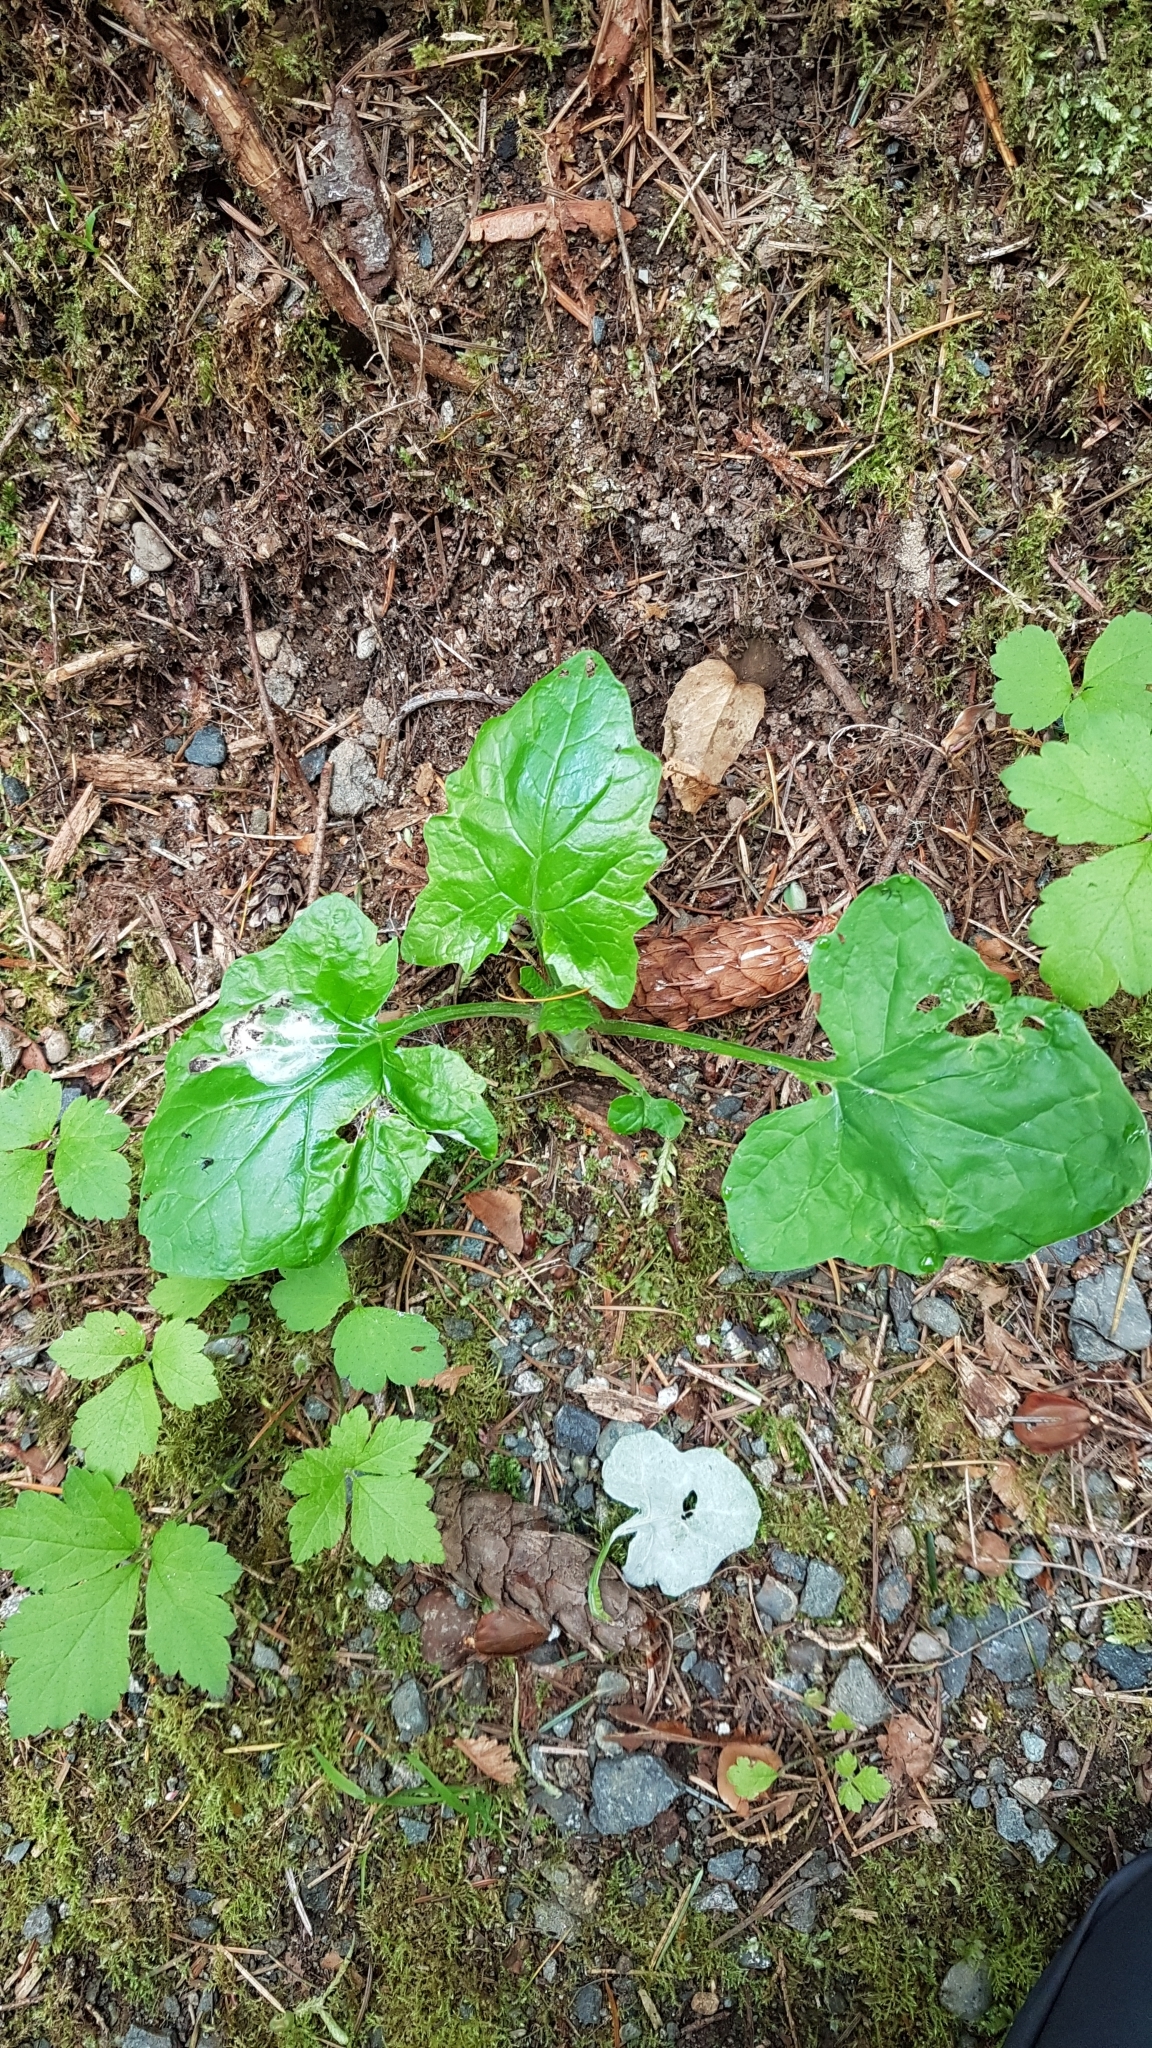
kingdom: Plantae
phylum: Tracheophyta
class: Magnoliopsida
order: Asterales
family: Asteraceae
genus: Adenocaulon
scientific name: Adenocaulon bicolor
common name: Trailplant
